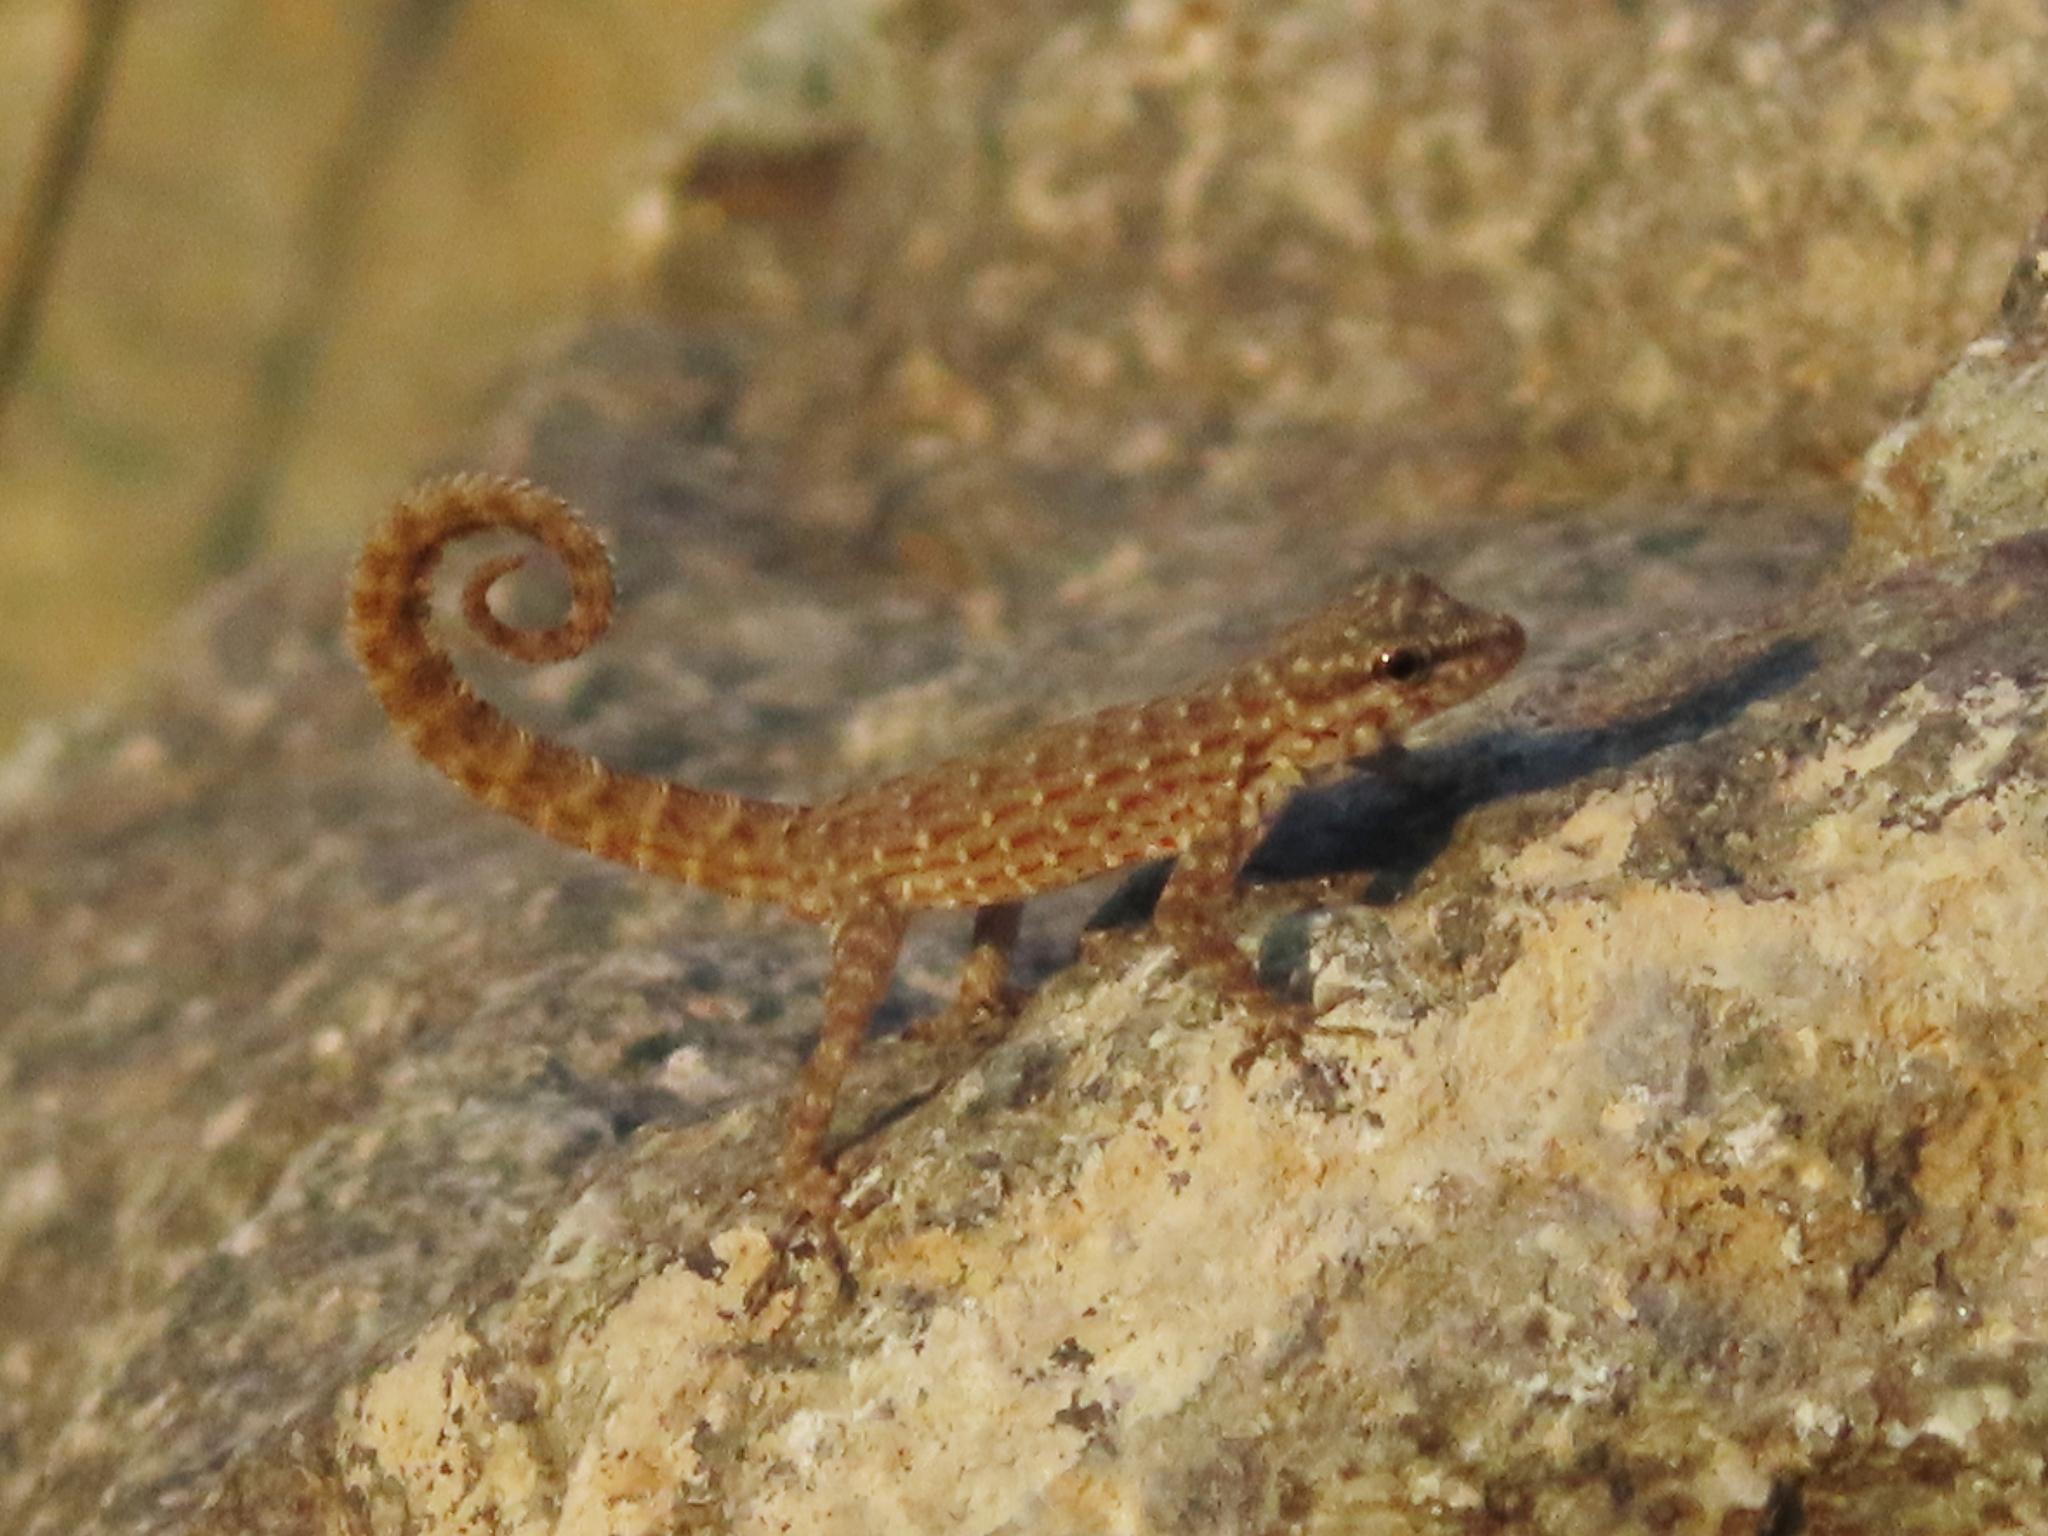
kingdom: Animalia
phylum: Chordata
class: Squamata
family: Sphaerodactylidae
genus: Pristurus
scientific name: Pristurus rupestris
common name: Blanford’s semaphore gecko
